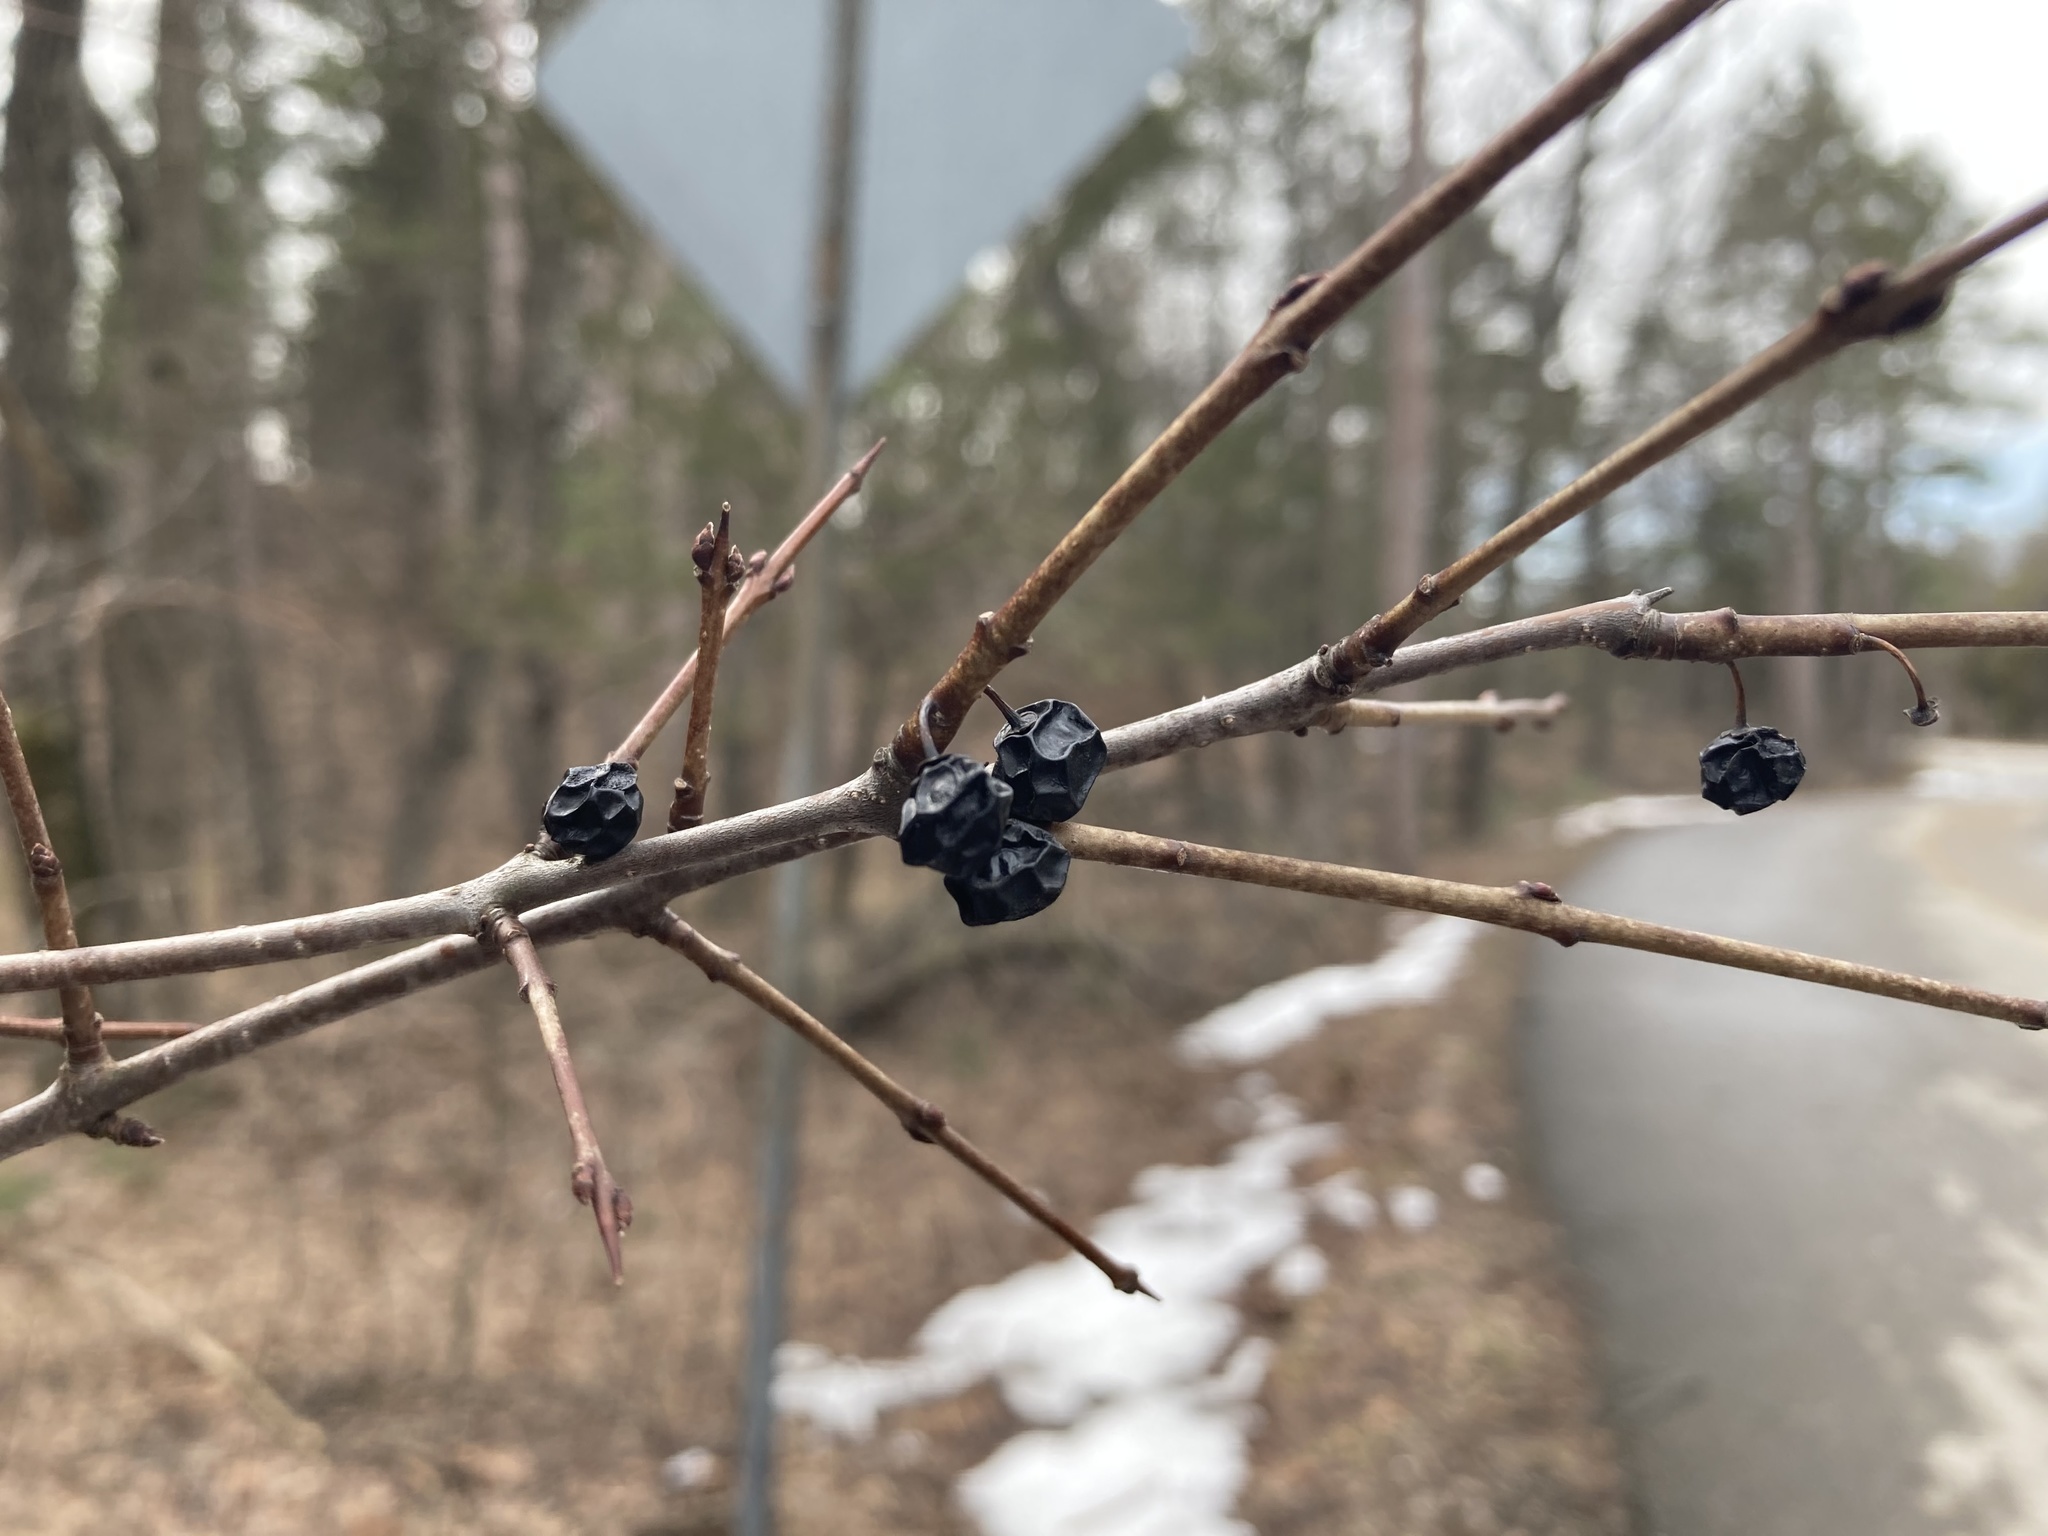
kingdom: Plantae
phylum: Tracheophyta
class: Magnoliopsida
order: Rosales
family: Rhamnaceae
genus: Rhamnus
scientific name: Rhamnus cathartica
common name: Common buckthorn
